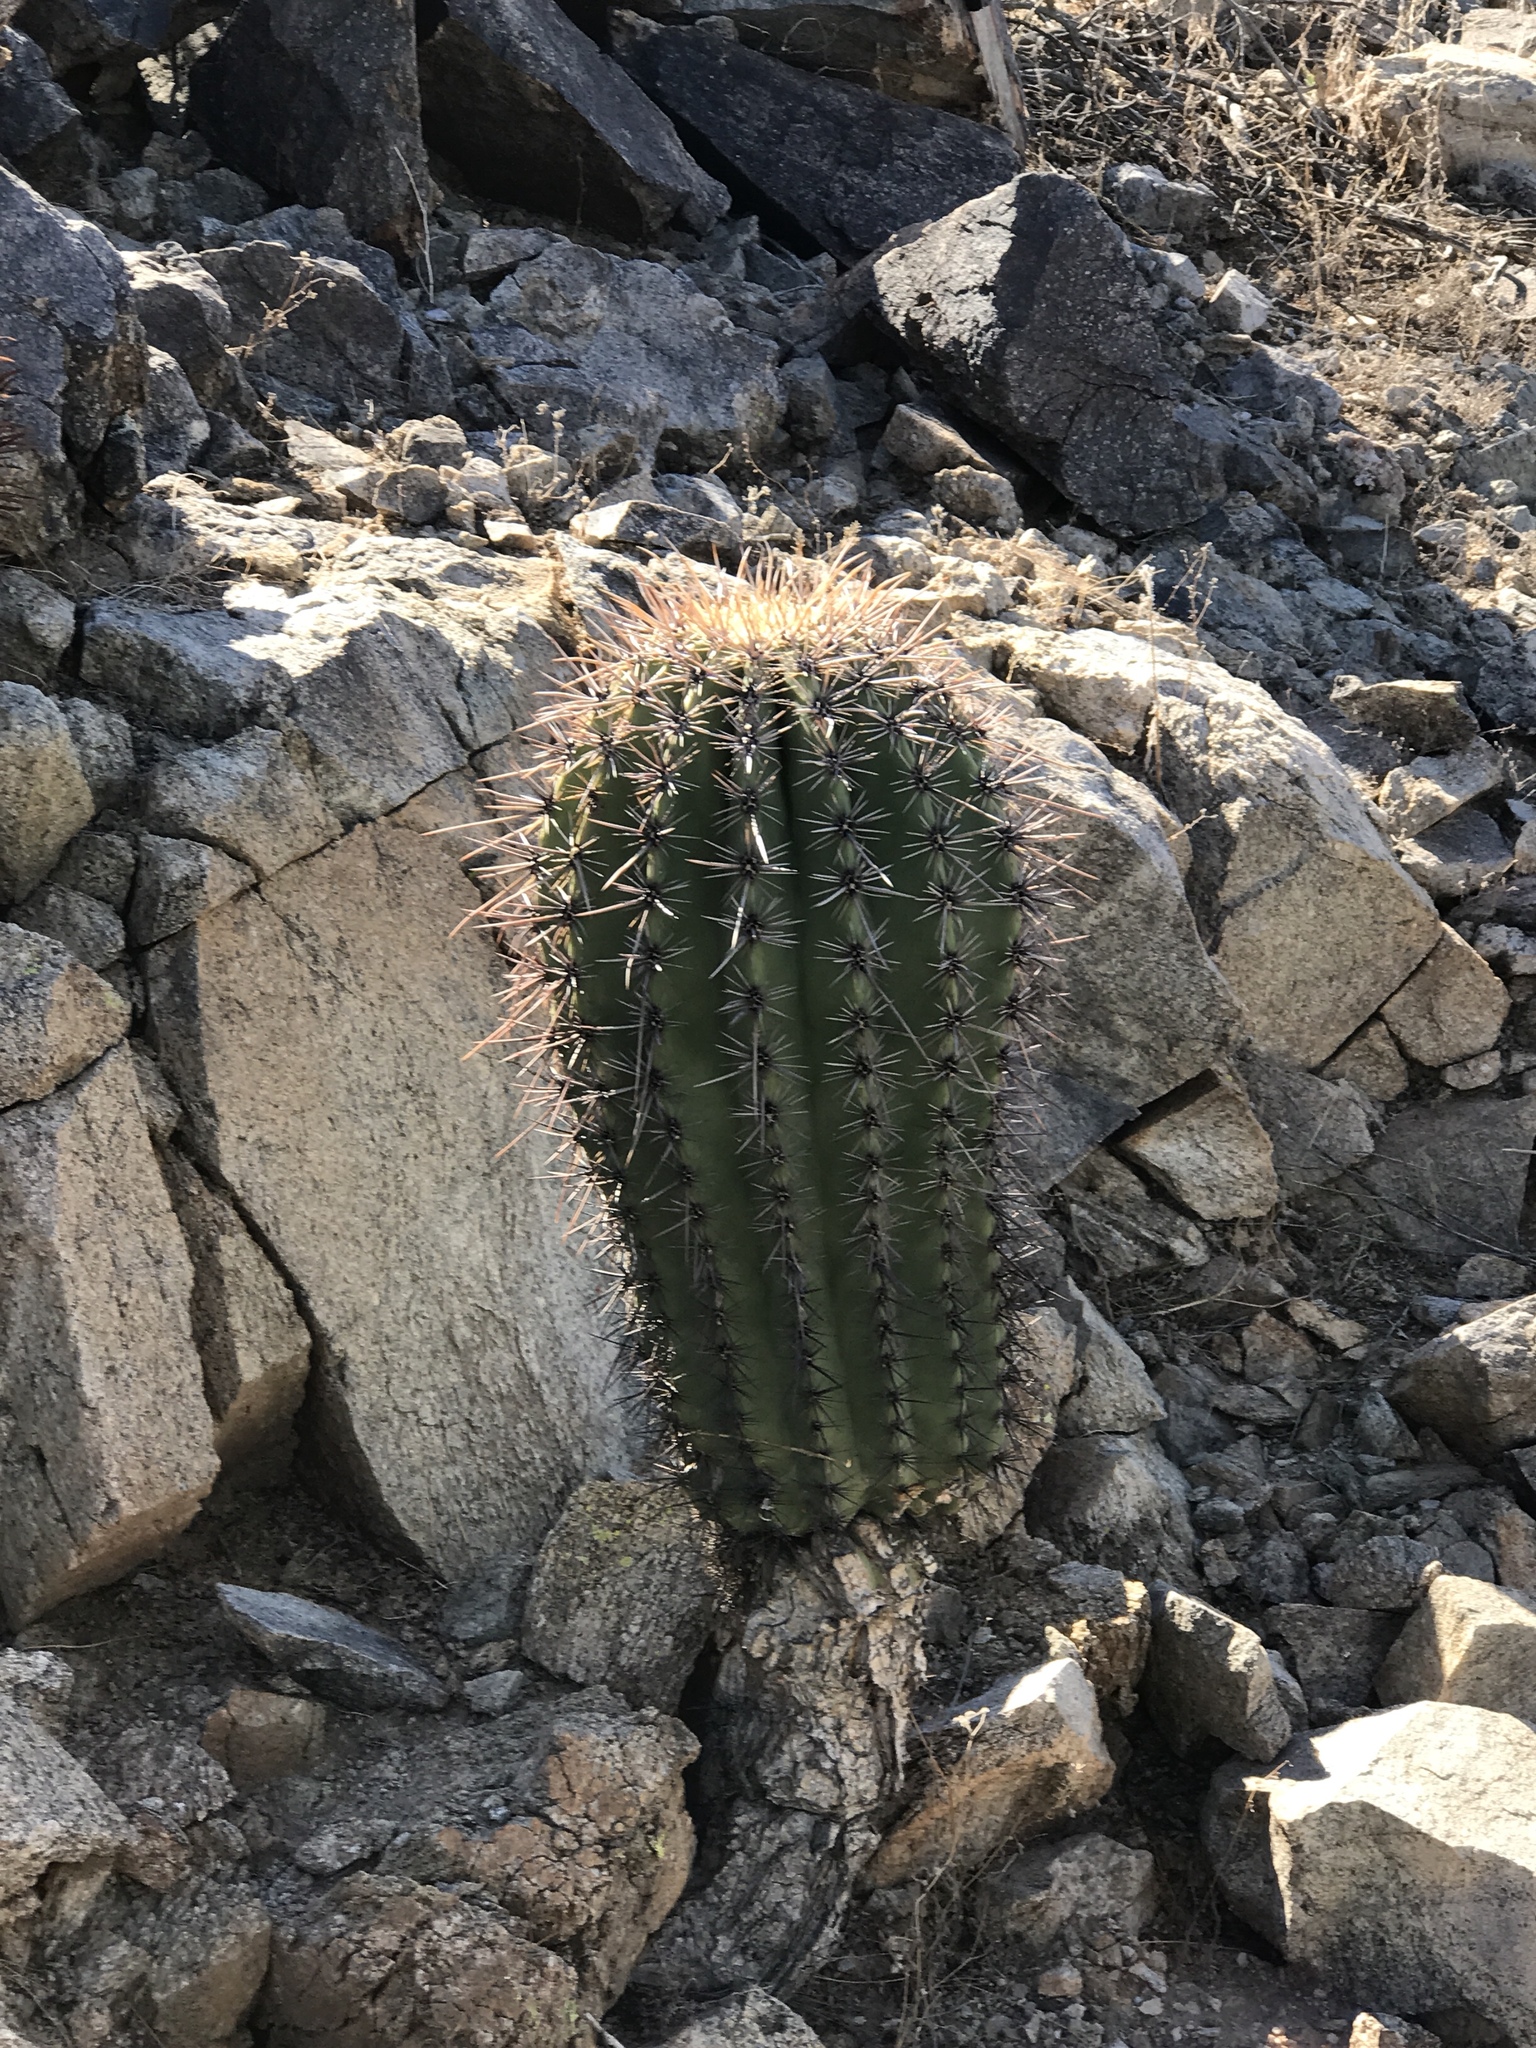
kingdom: Plantae
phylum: Tracheophyta
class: Magnoliopsida
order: Caryophyllales
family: Cactaceae
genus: Carnegiea
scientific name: Carnegiea gigantea
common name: Saguaro
